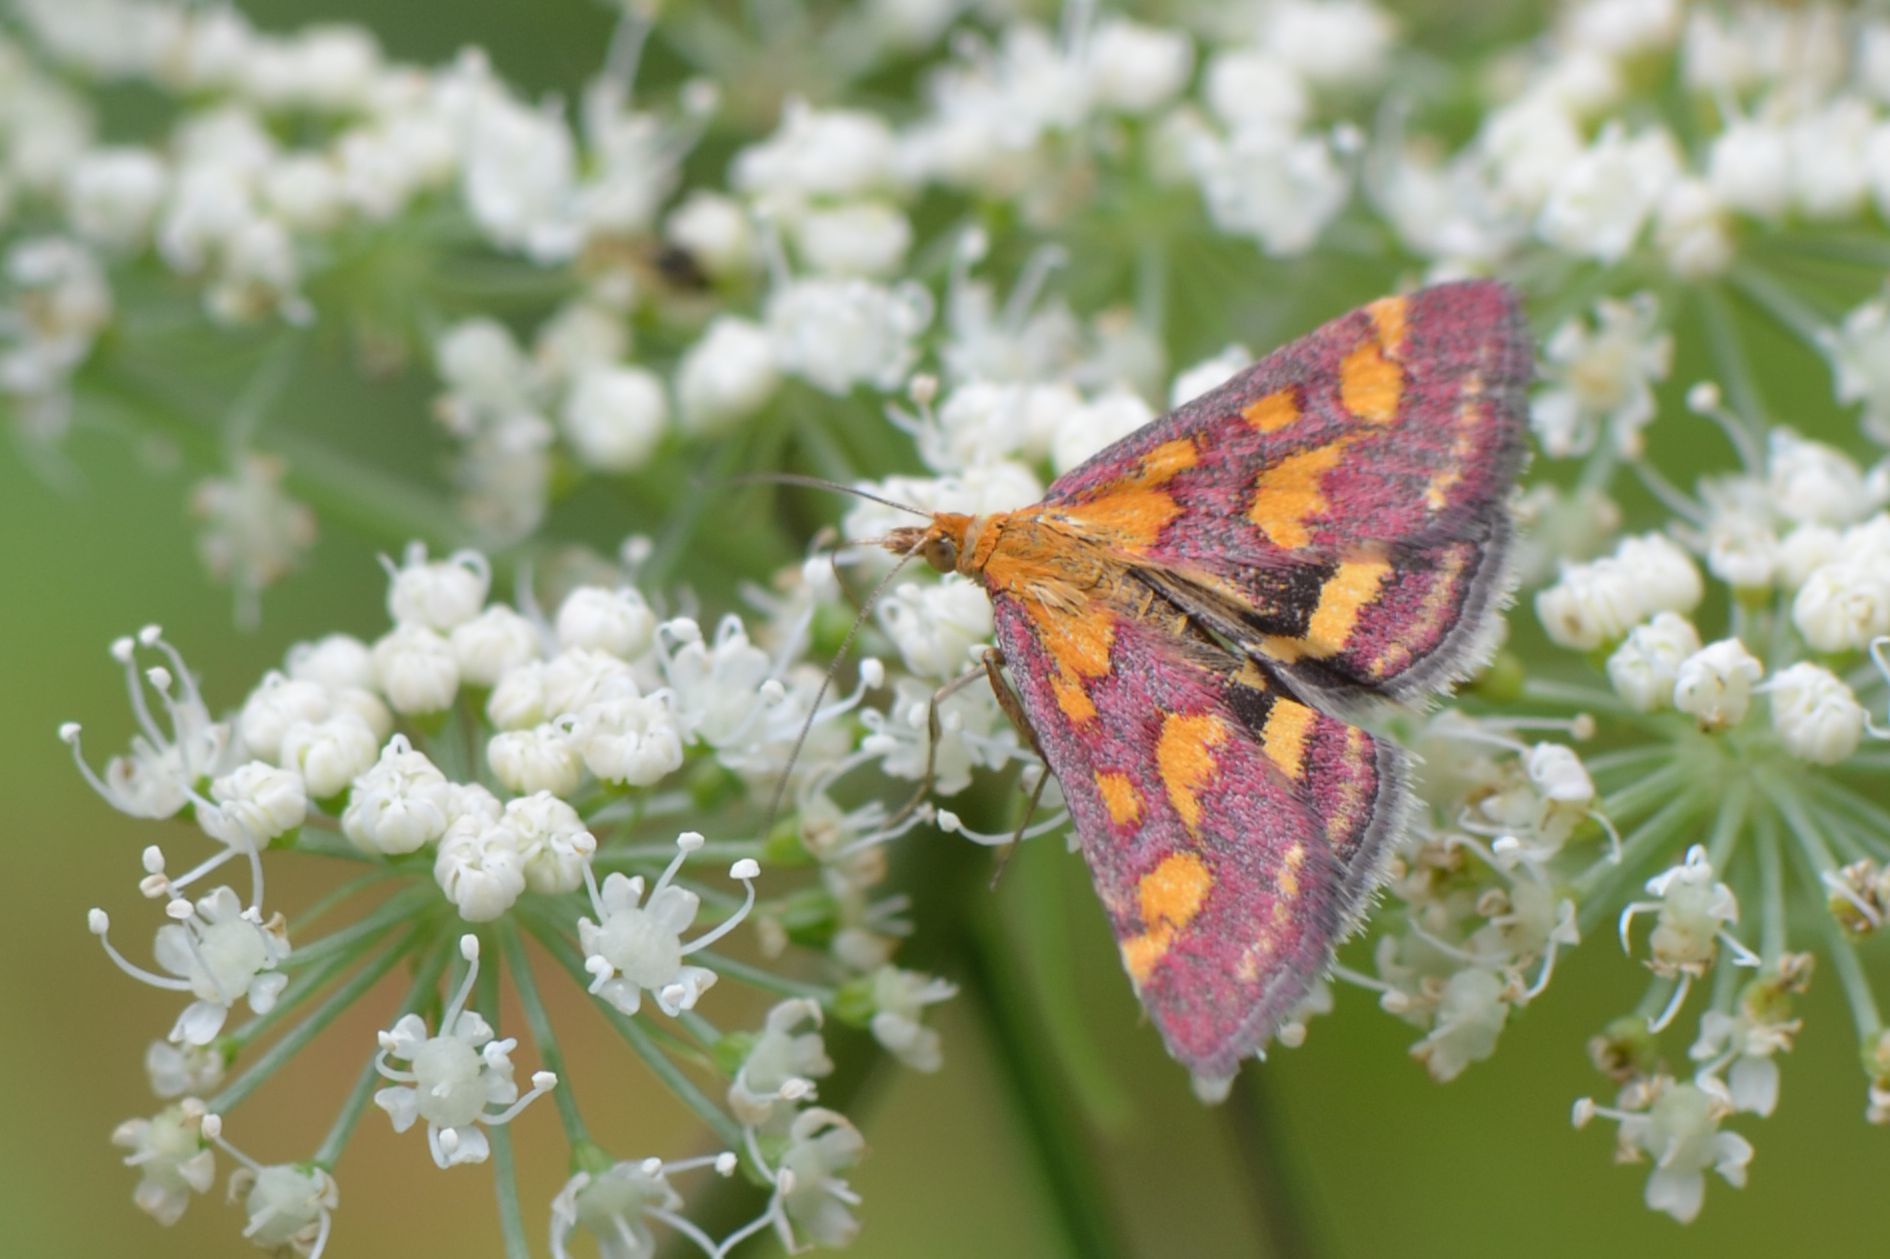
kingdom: Animalia
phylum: Arthropoda
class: Insecta
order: Lepidoptera
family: Crambidae
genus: Pyrausta
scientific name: Pyrausta purpuralis
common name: Common purple & gold
